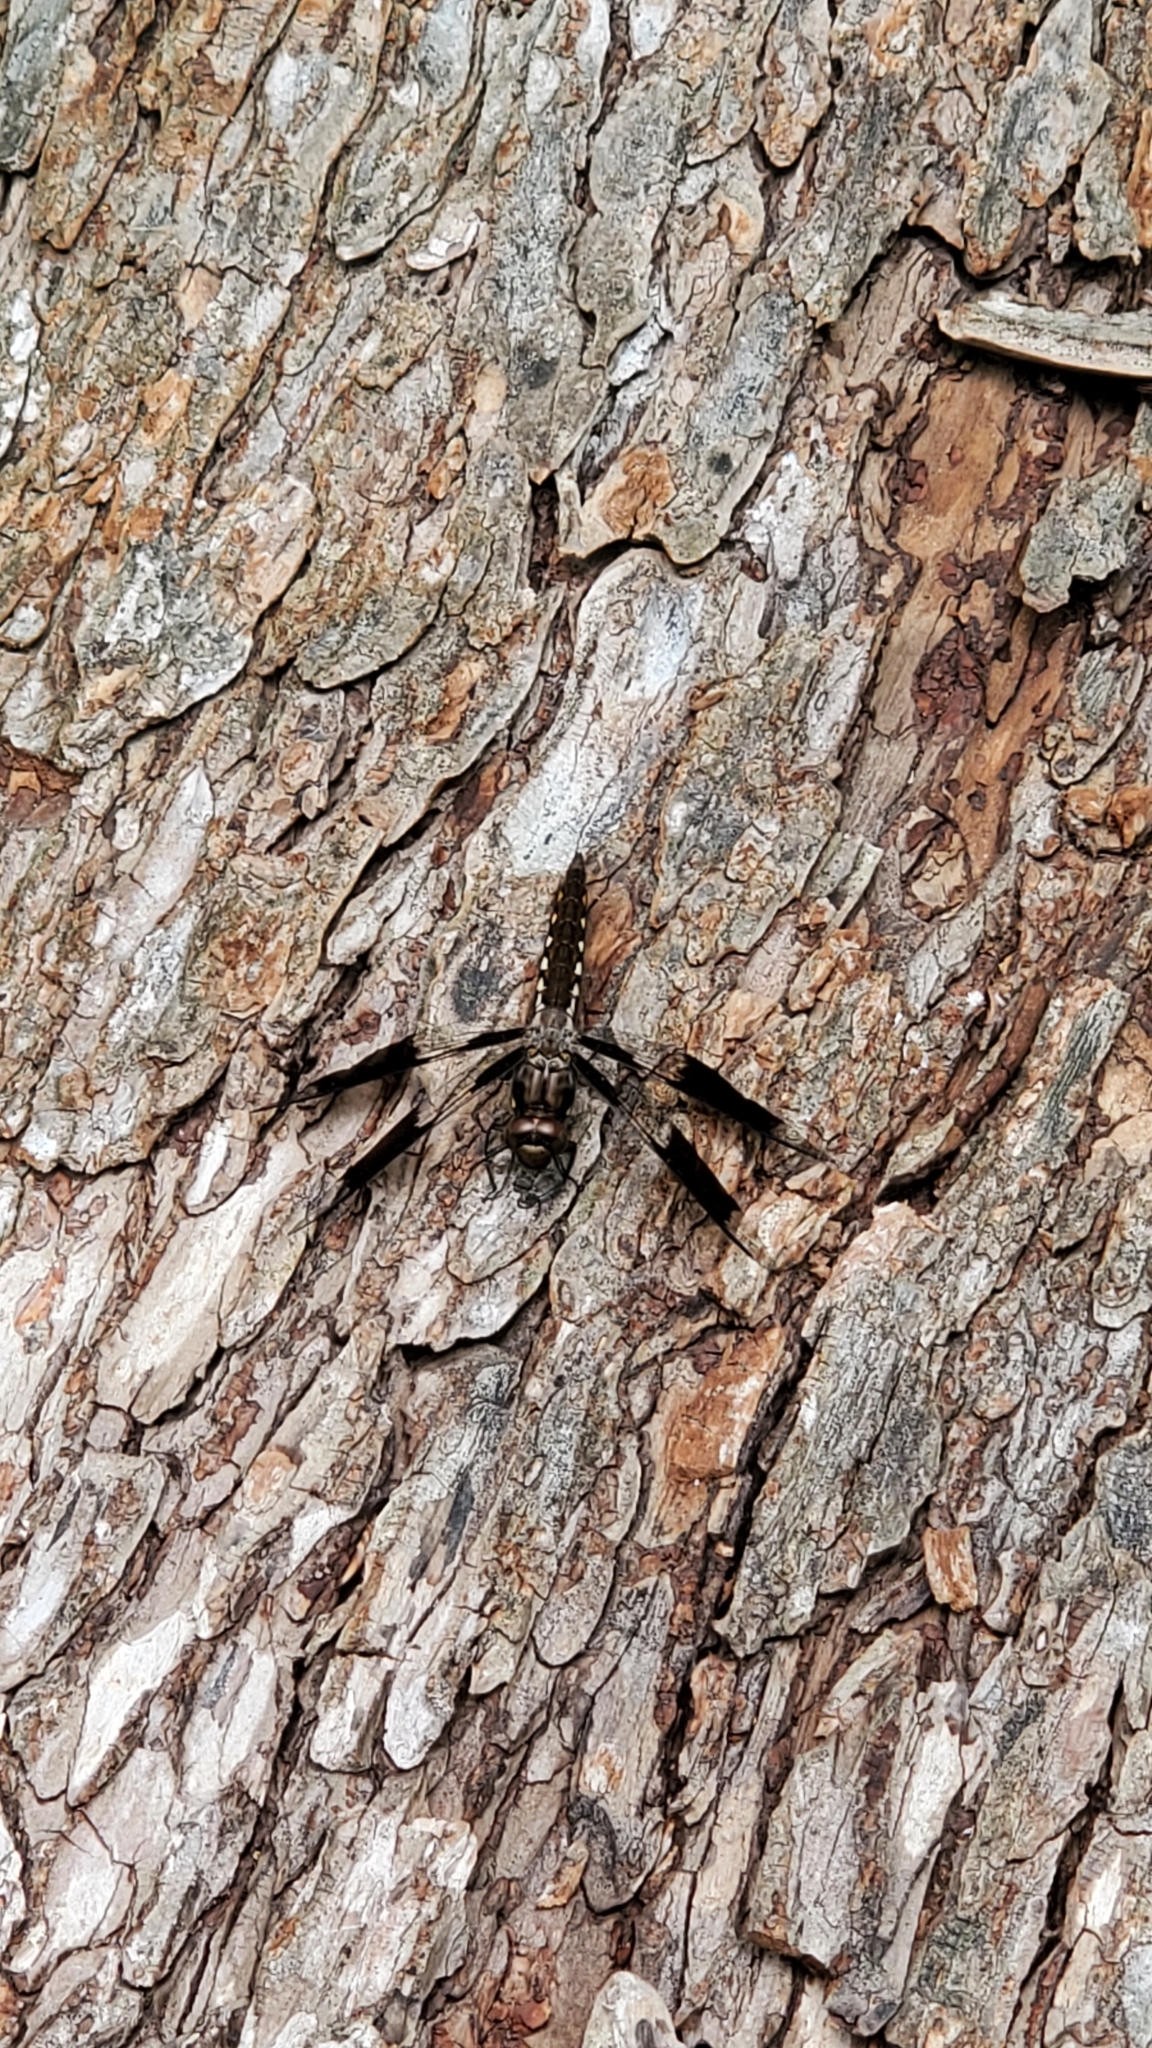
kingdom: Animalia
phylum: Arthropoda
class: Insecta
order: Odonata
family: Libellulidae
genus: Plathemis
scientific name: Plathemis lydia
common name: Common whitetail
